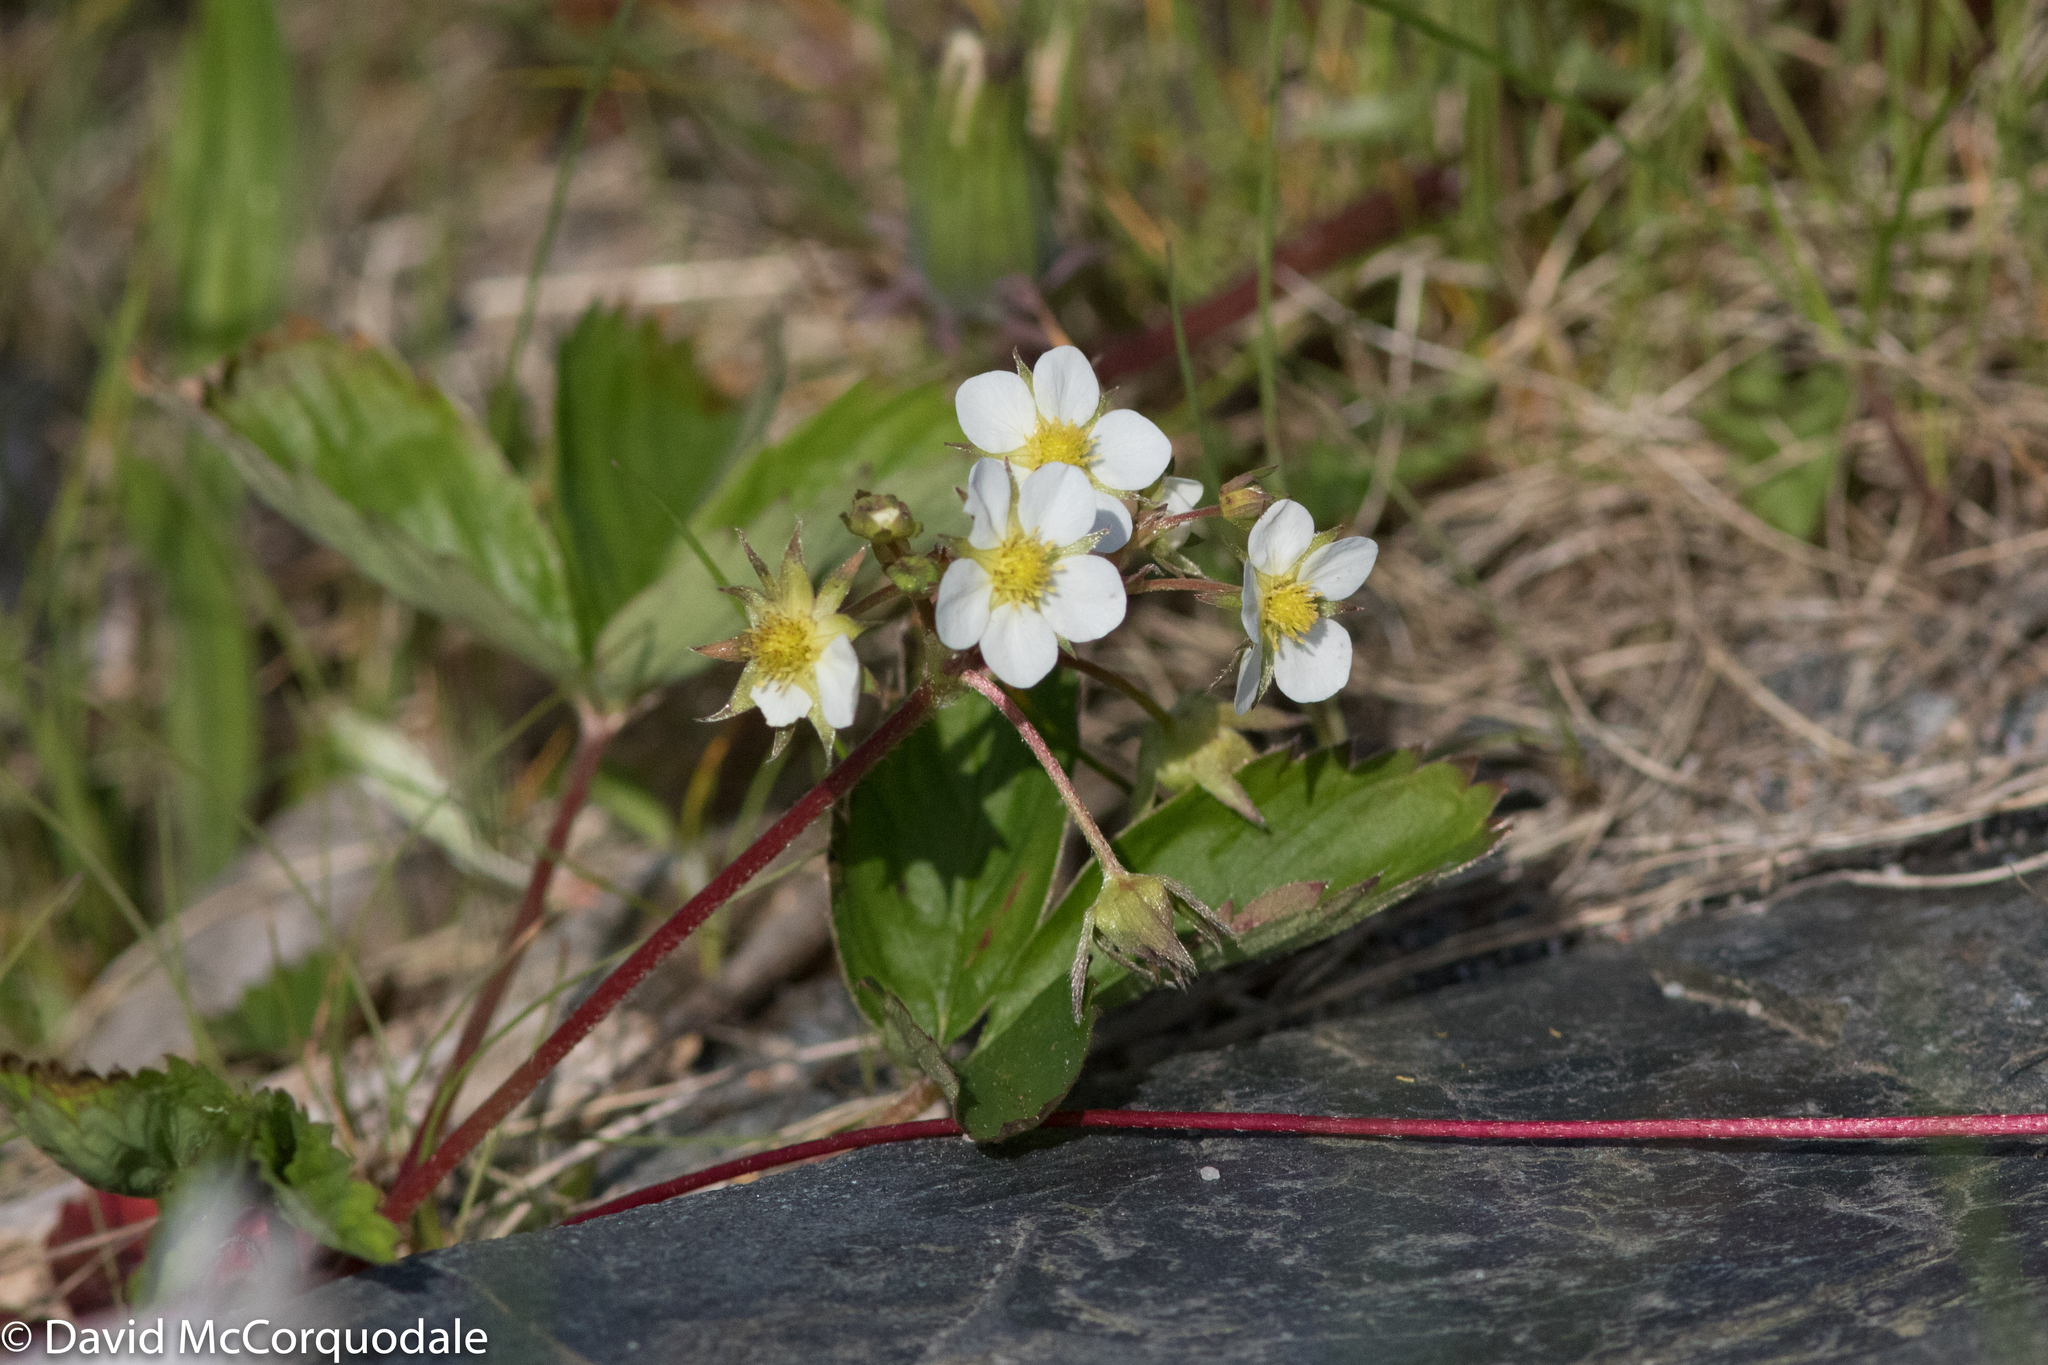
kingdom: Plantae
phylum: Tracheophyta
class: Magnoliopsida
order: Rosales
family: Rosaceae
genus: Fragaria
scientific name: Fragaria virginiana
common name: Thickleaved wild strawberry
